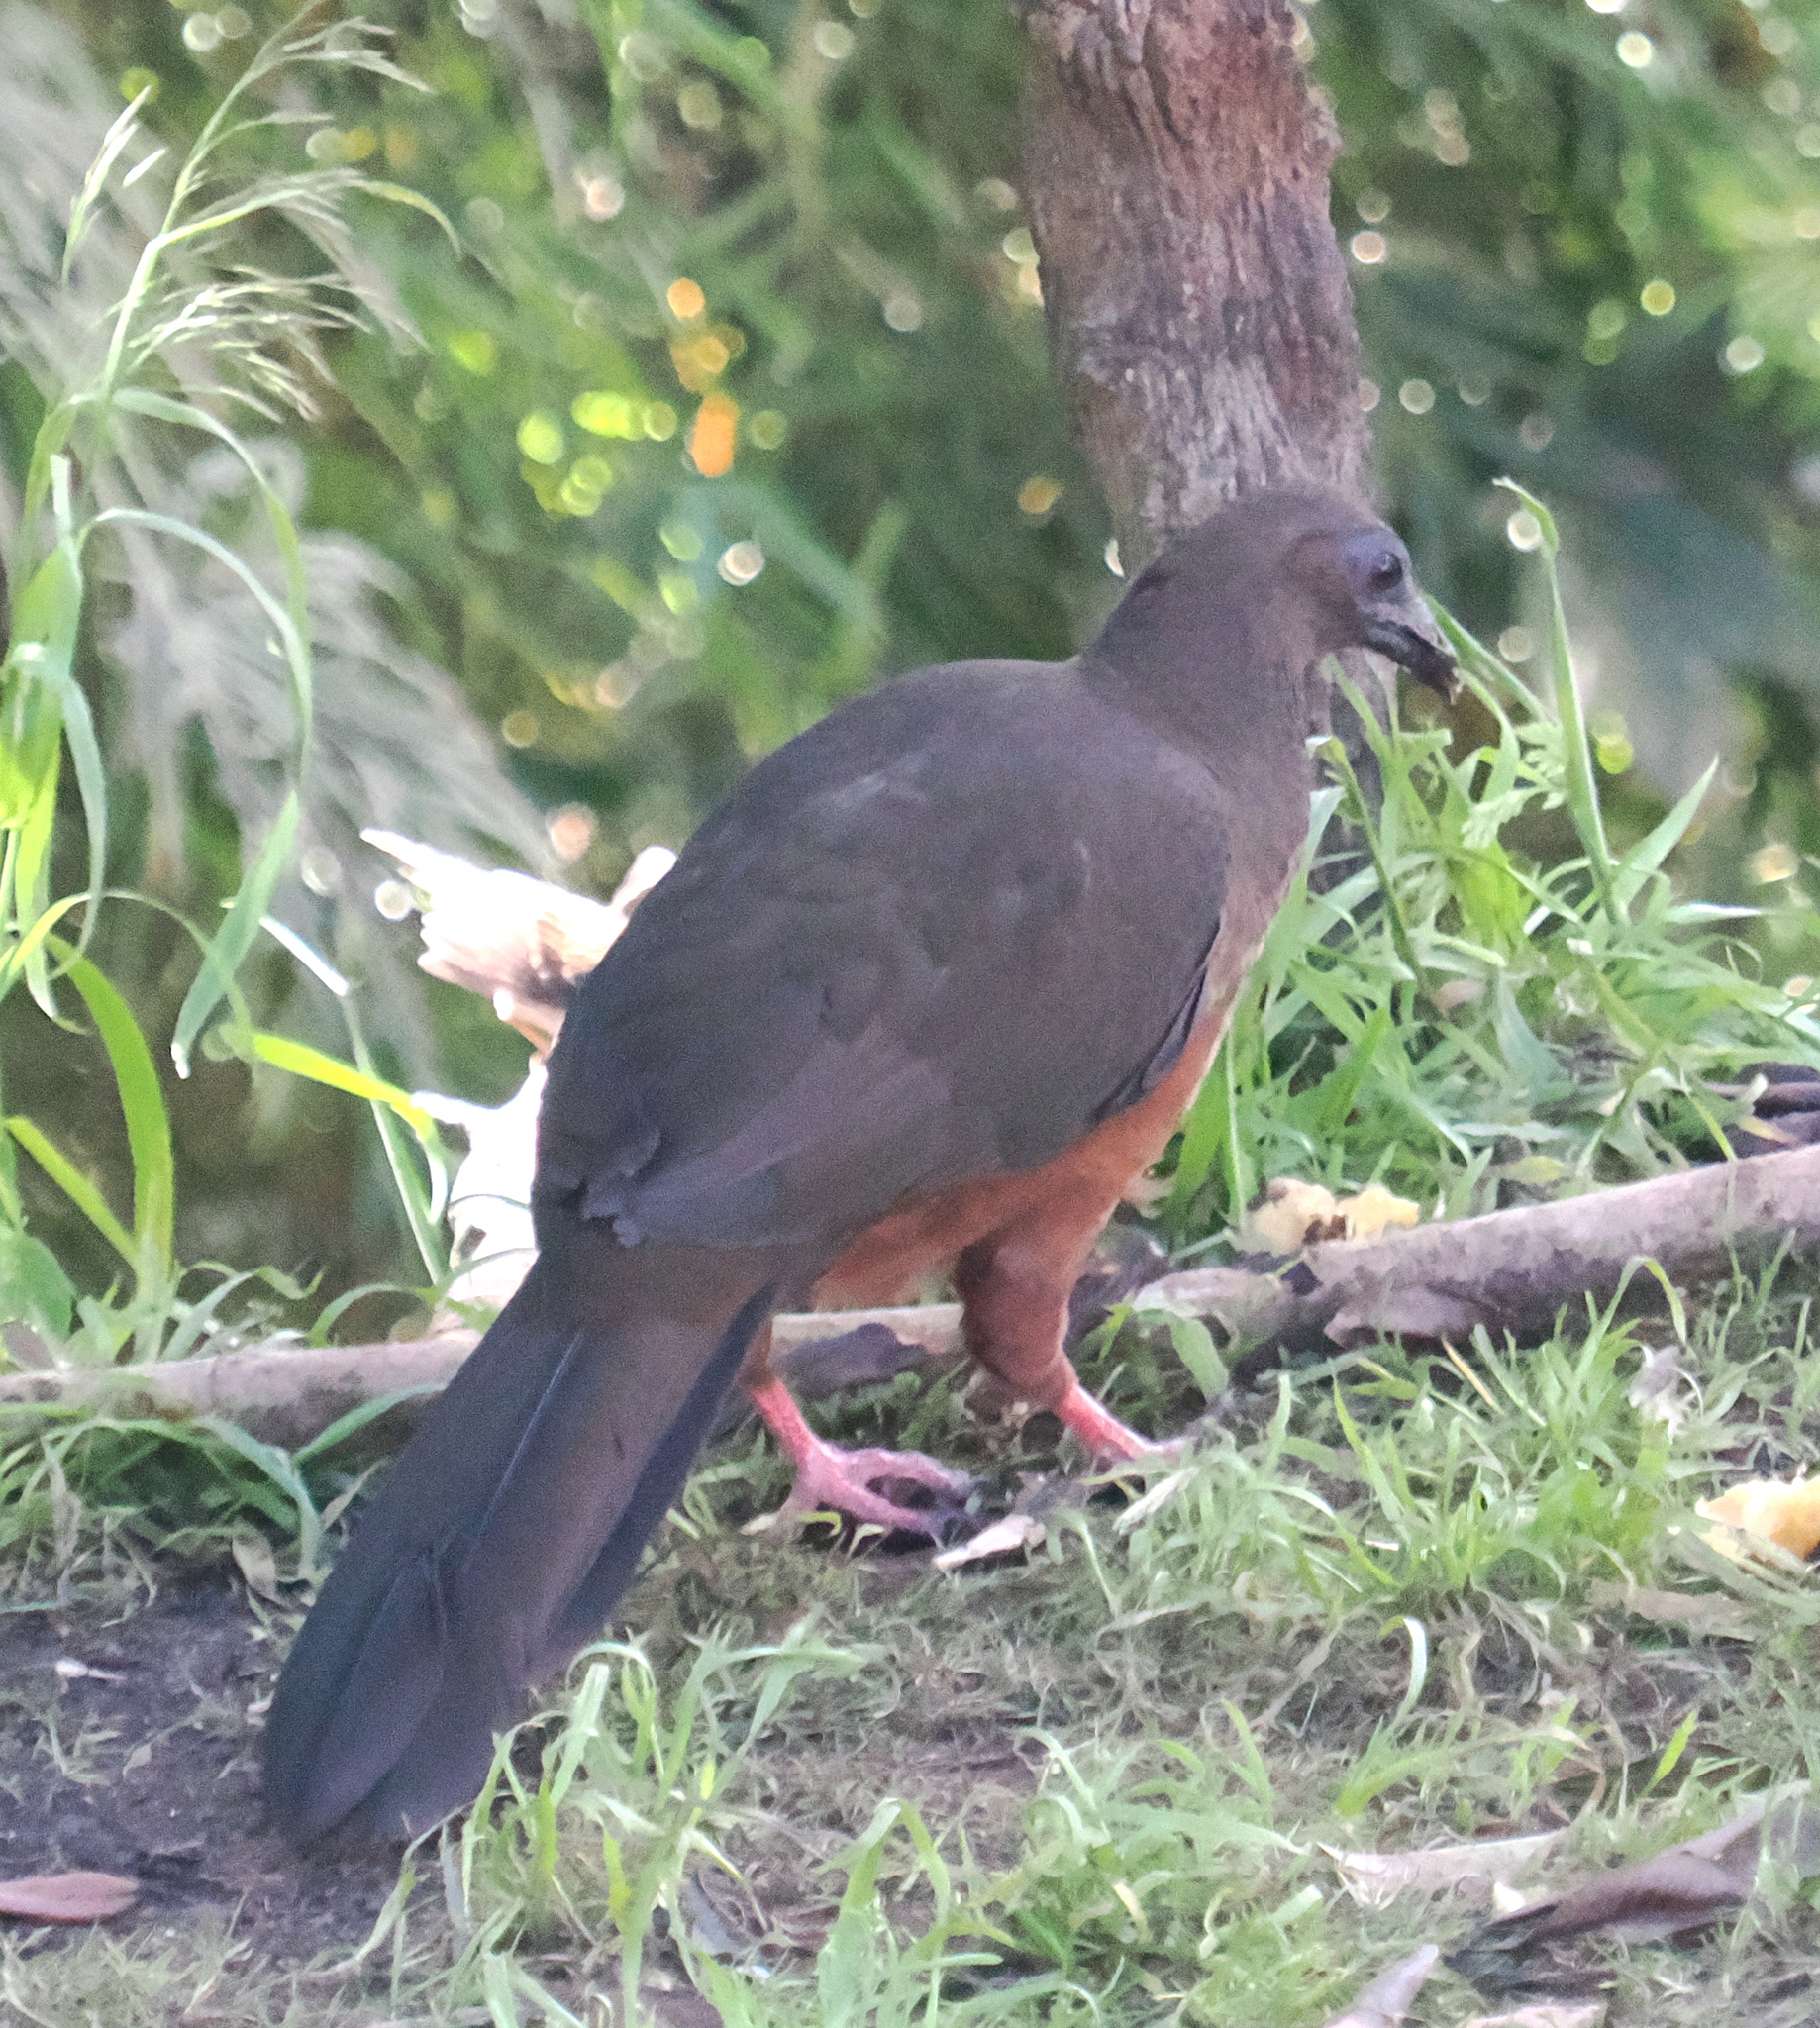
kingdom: Animalia
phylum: Chordata
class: Aves
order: Galliformes
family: Cracidae
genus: Chamaepetes
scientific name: Chamaepetes goudotii
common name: Sickle-winged guan
